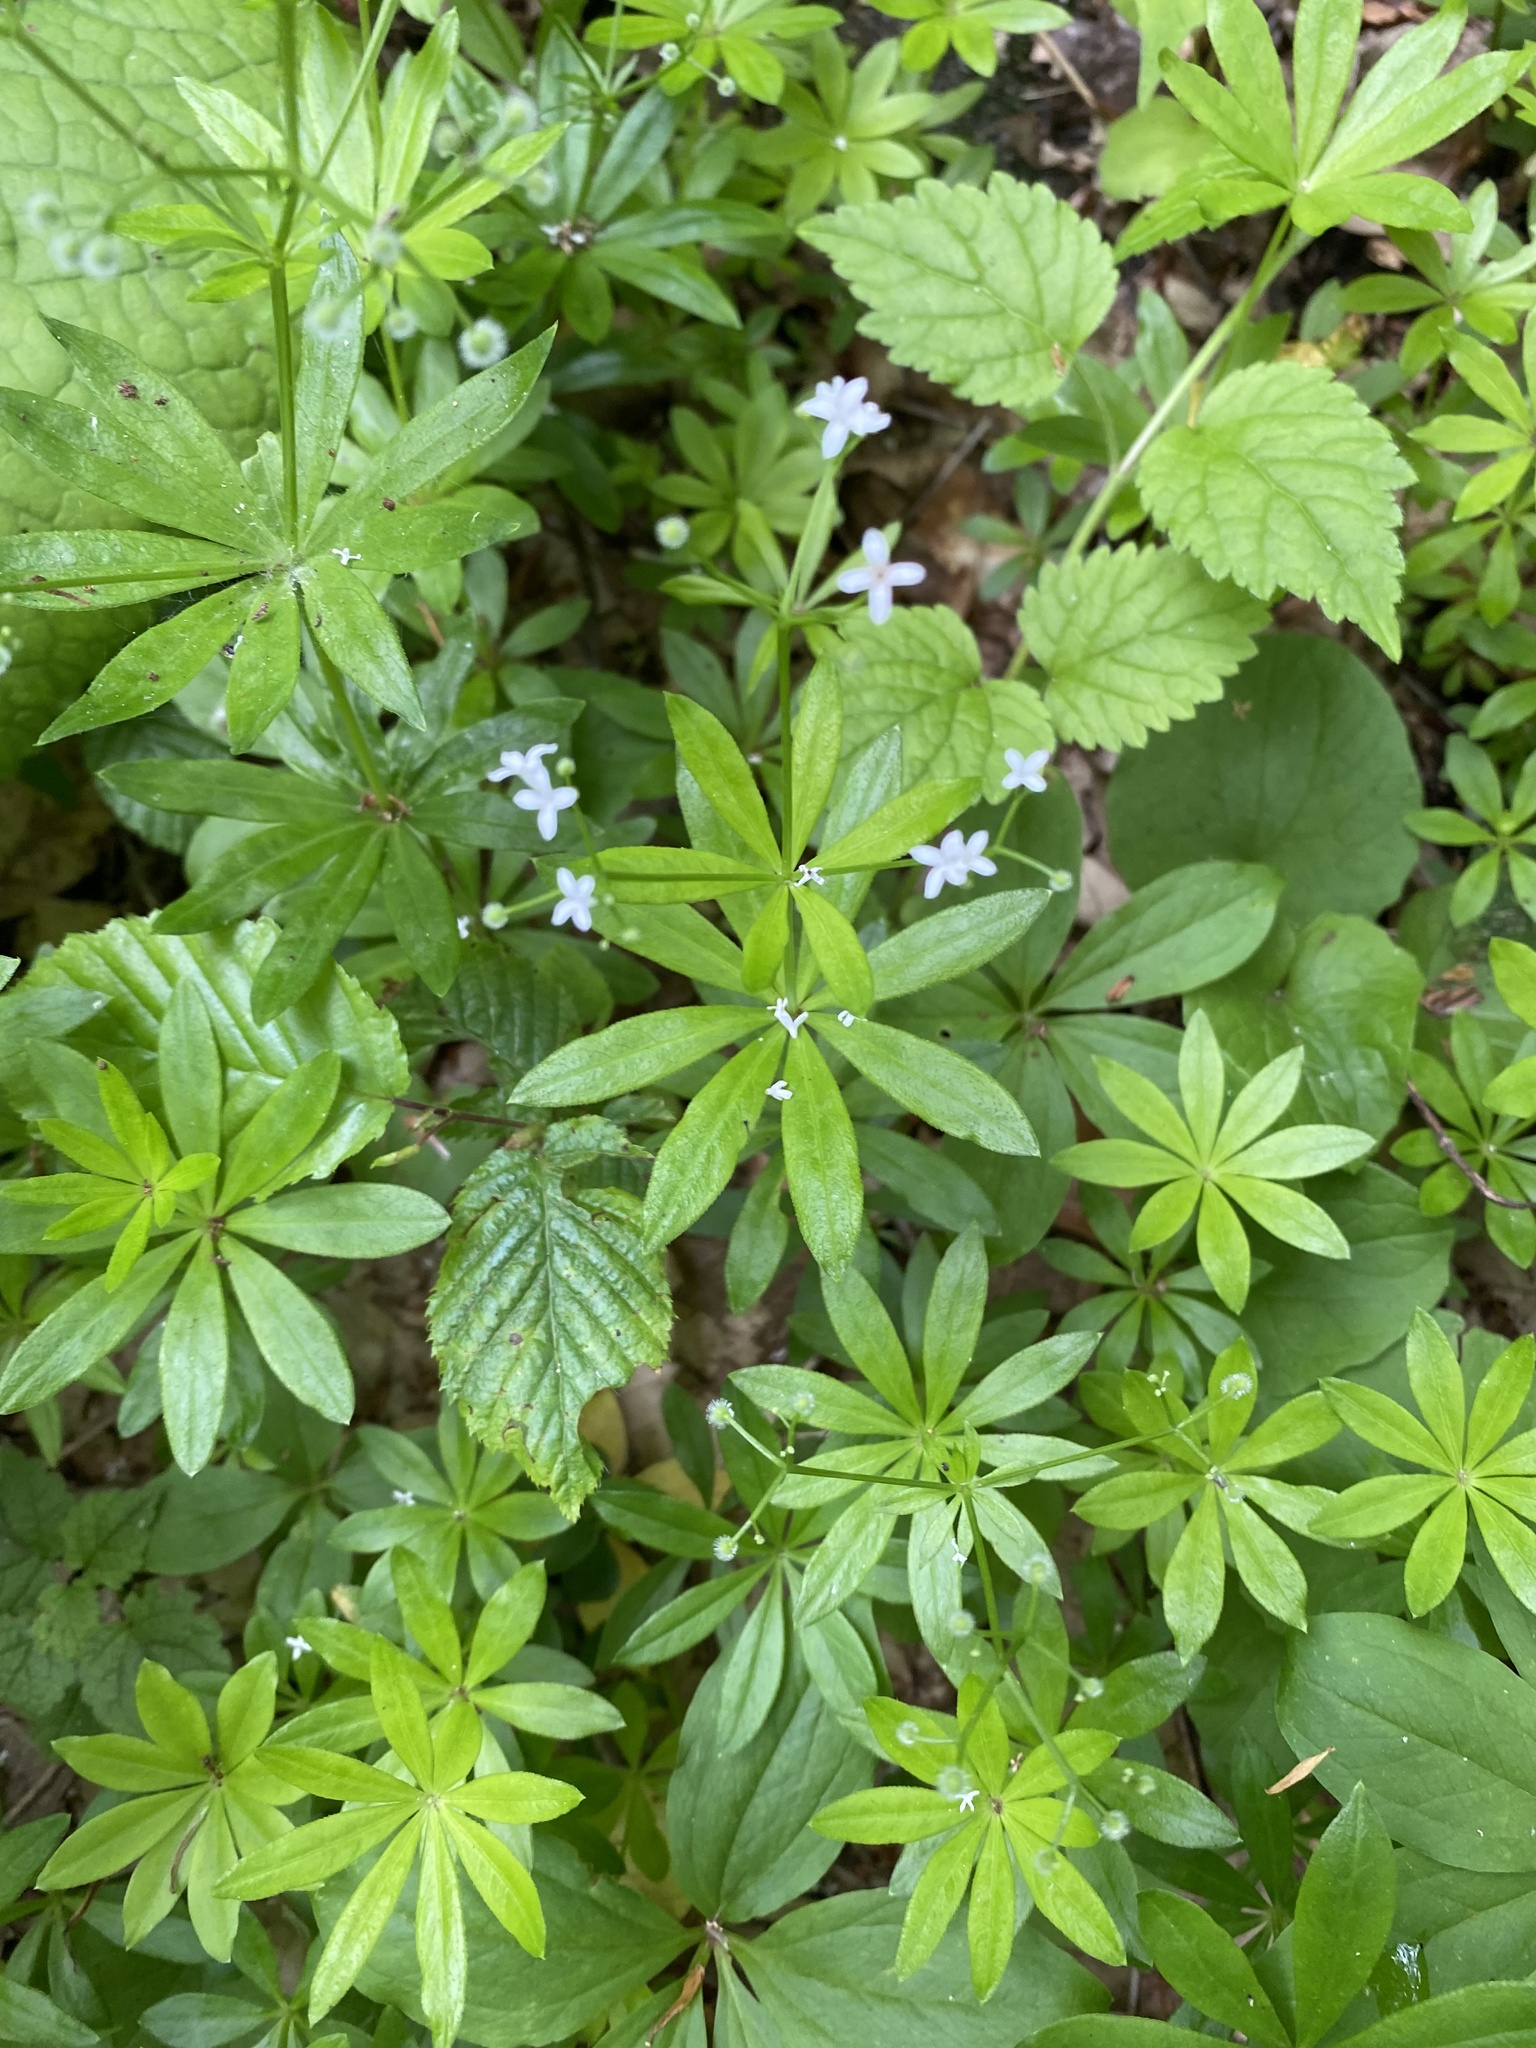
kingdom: Plantae
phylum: Tracheophyta
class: Magnoliopsida
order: Gentianales
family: Rubiaceae
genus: Galium
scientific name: Galium odoratum
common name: Sweet woodruff
